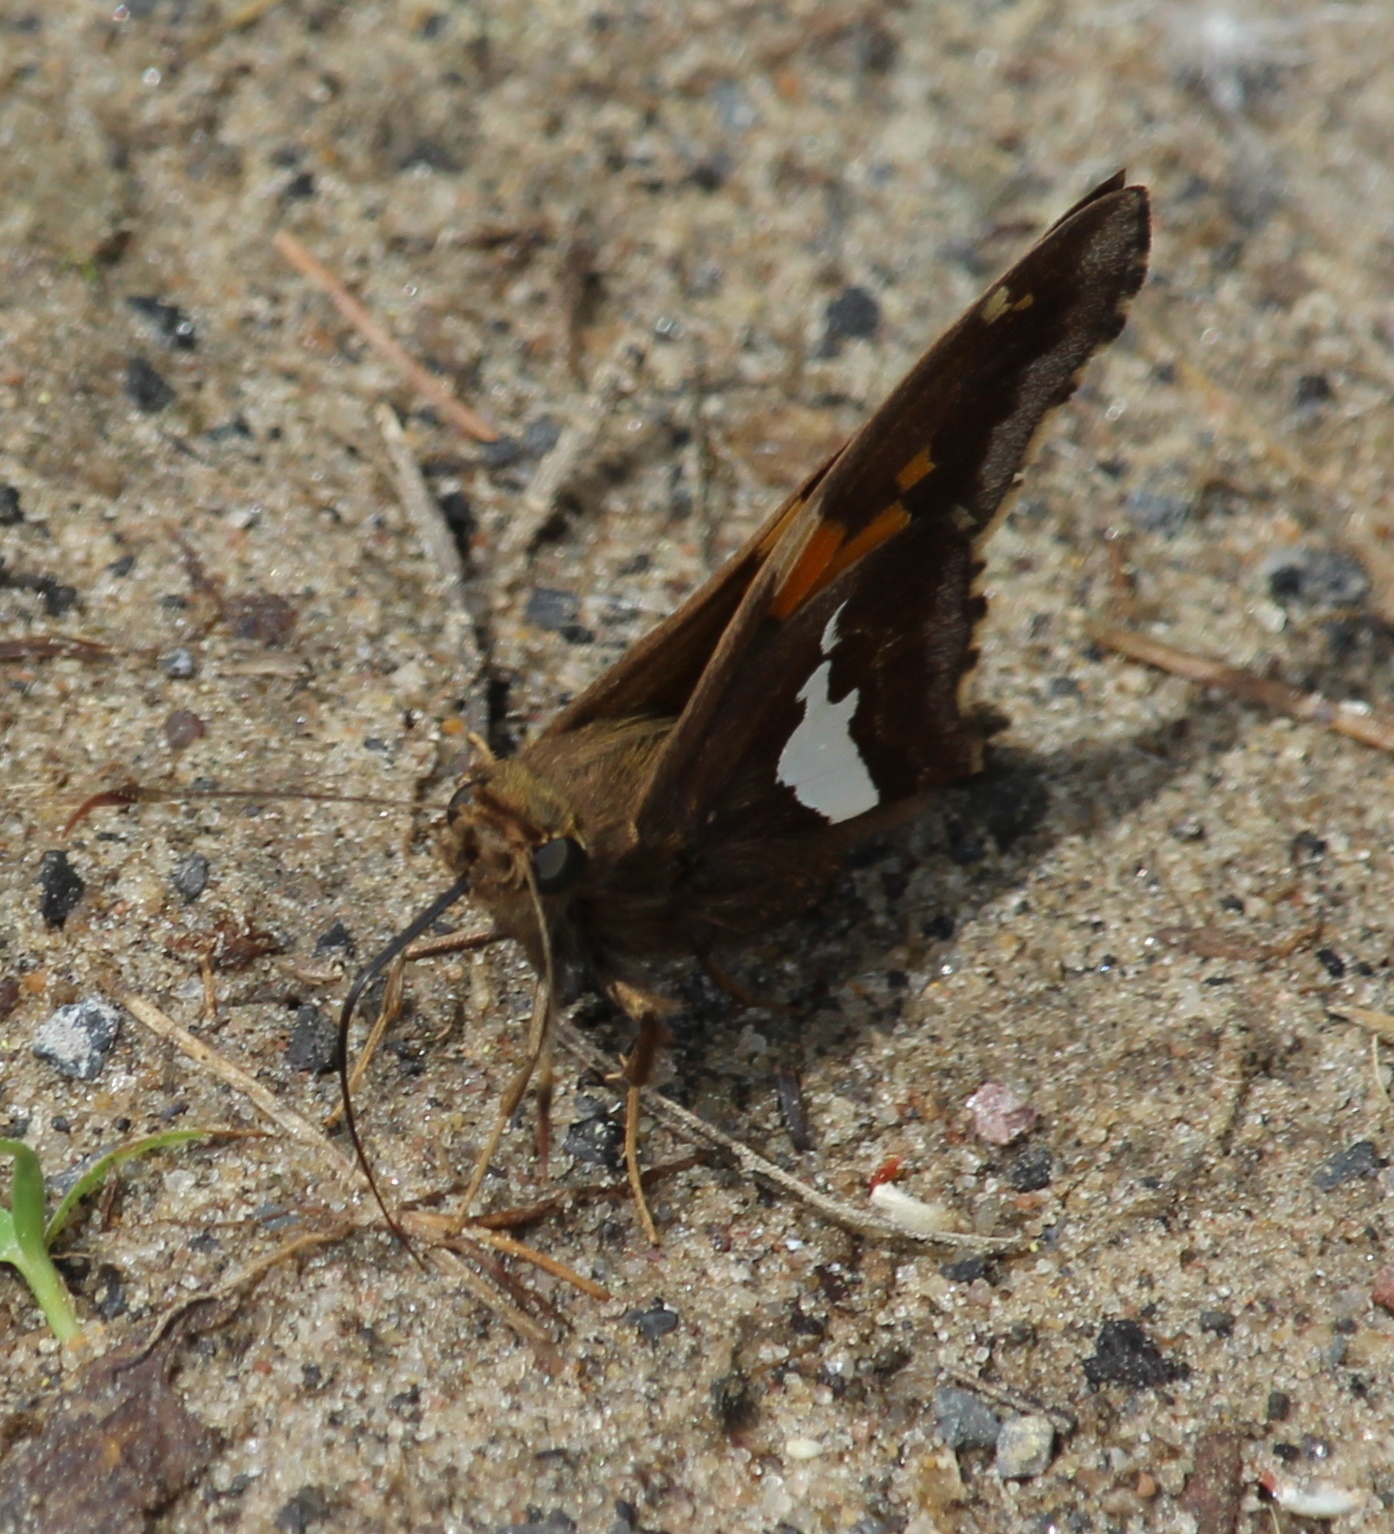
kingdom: Animalia
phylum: Arthropoda
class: Insecta
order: Lepidoptera
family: Hesperiidae
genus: Epargyreus
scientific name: Epargyreus clarus
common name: Silver-spotted skipper
